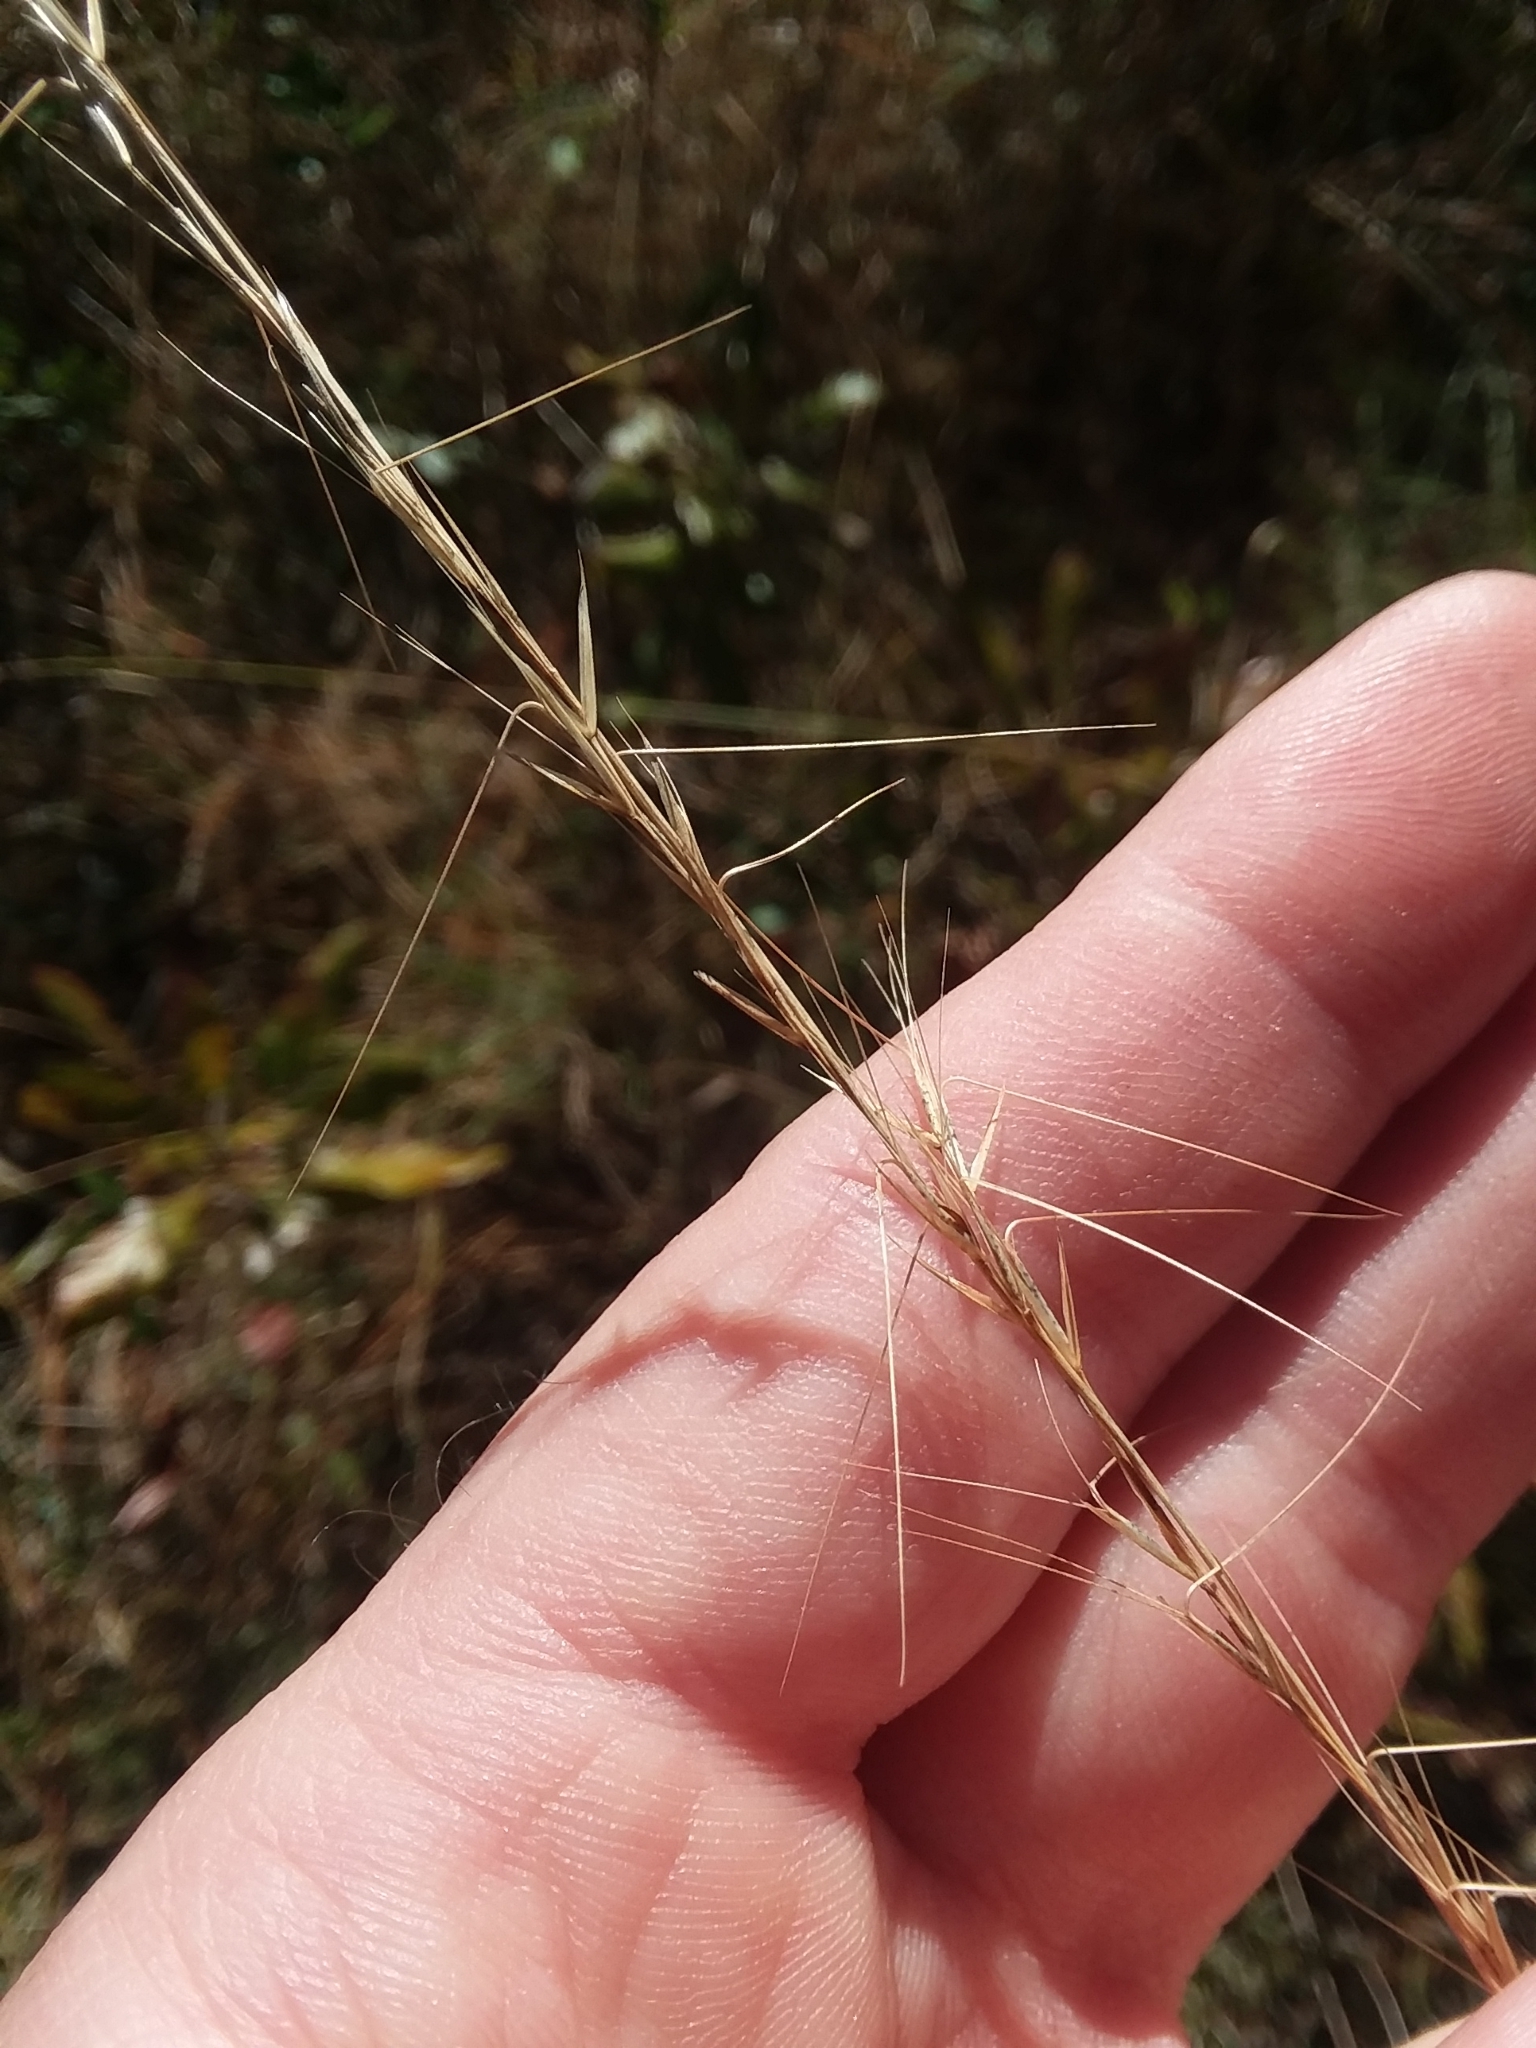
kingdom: Plantae
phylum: Tracheophyta
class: Liliopsida
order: Poales
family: Poaceae
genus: Aristida
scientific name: Aristida virgata
